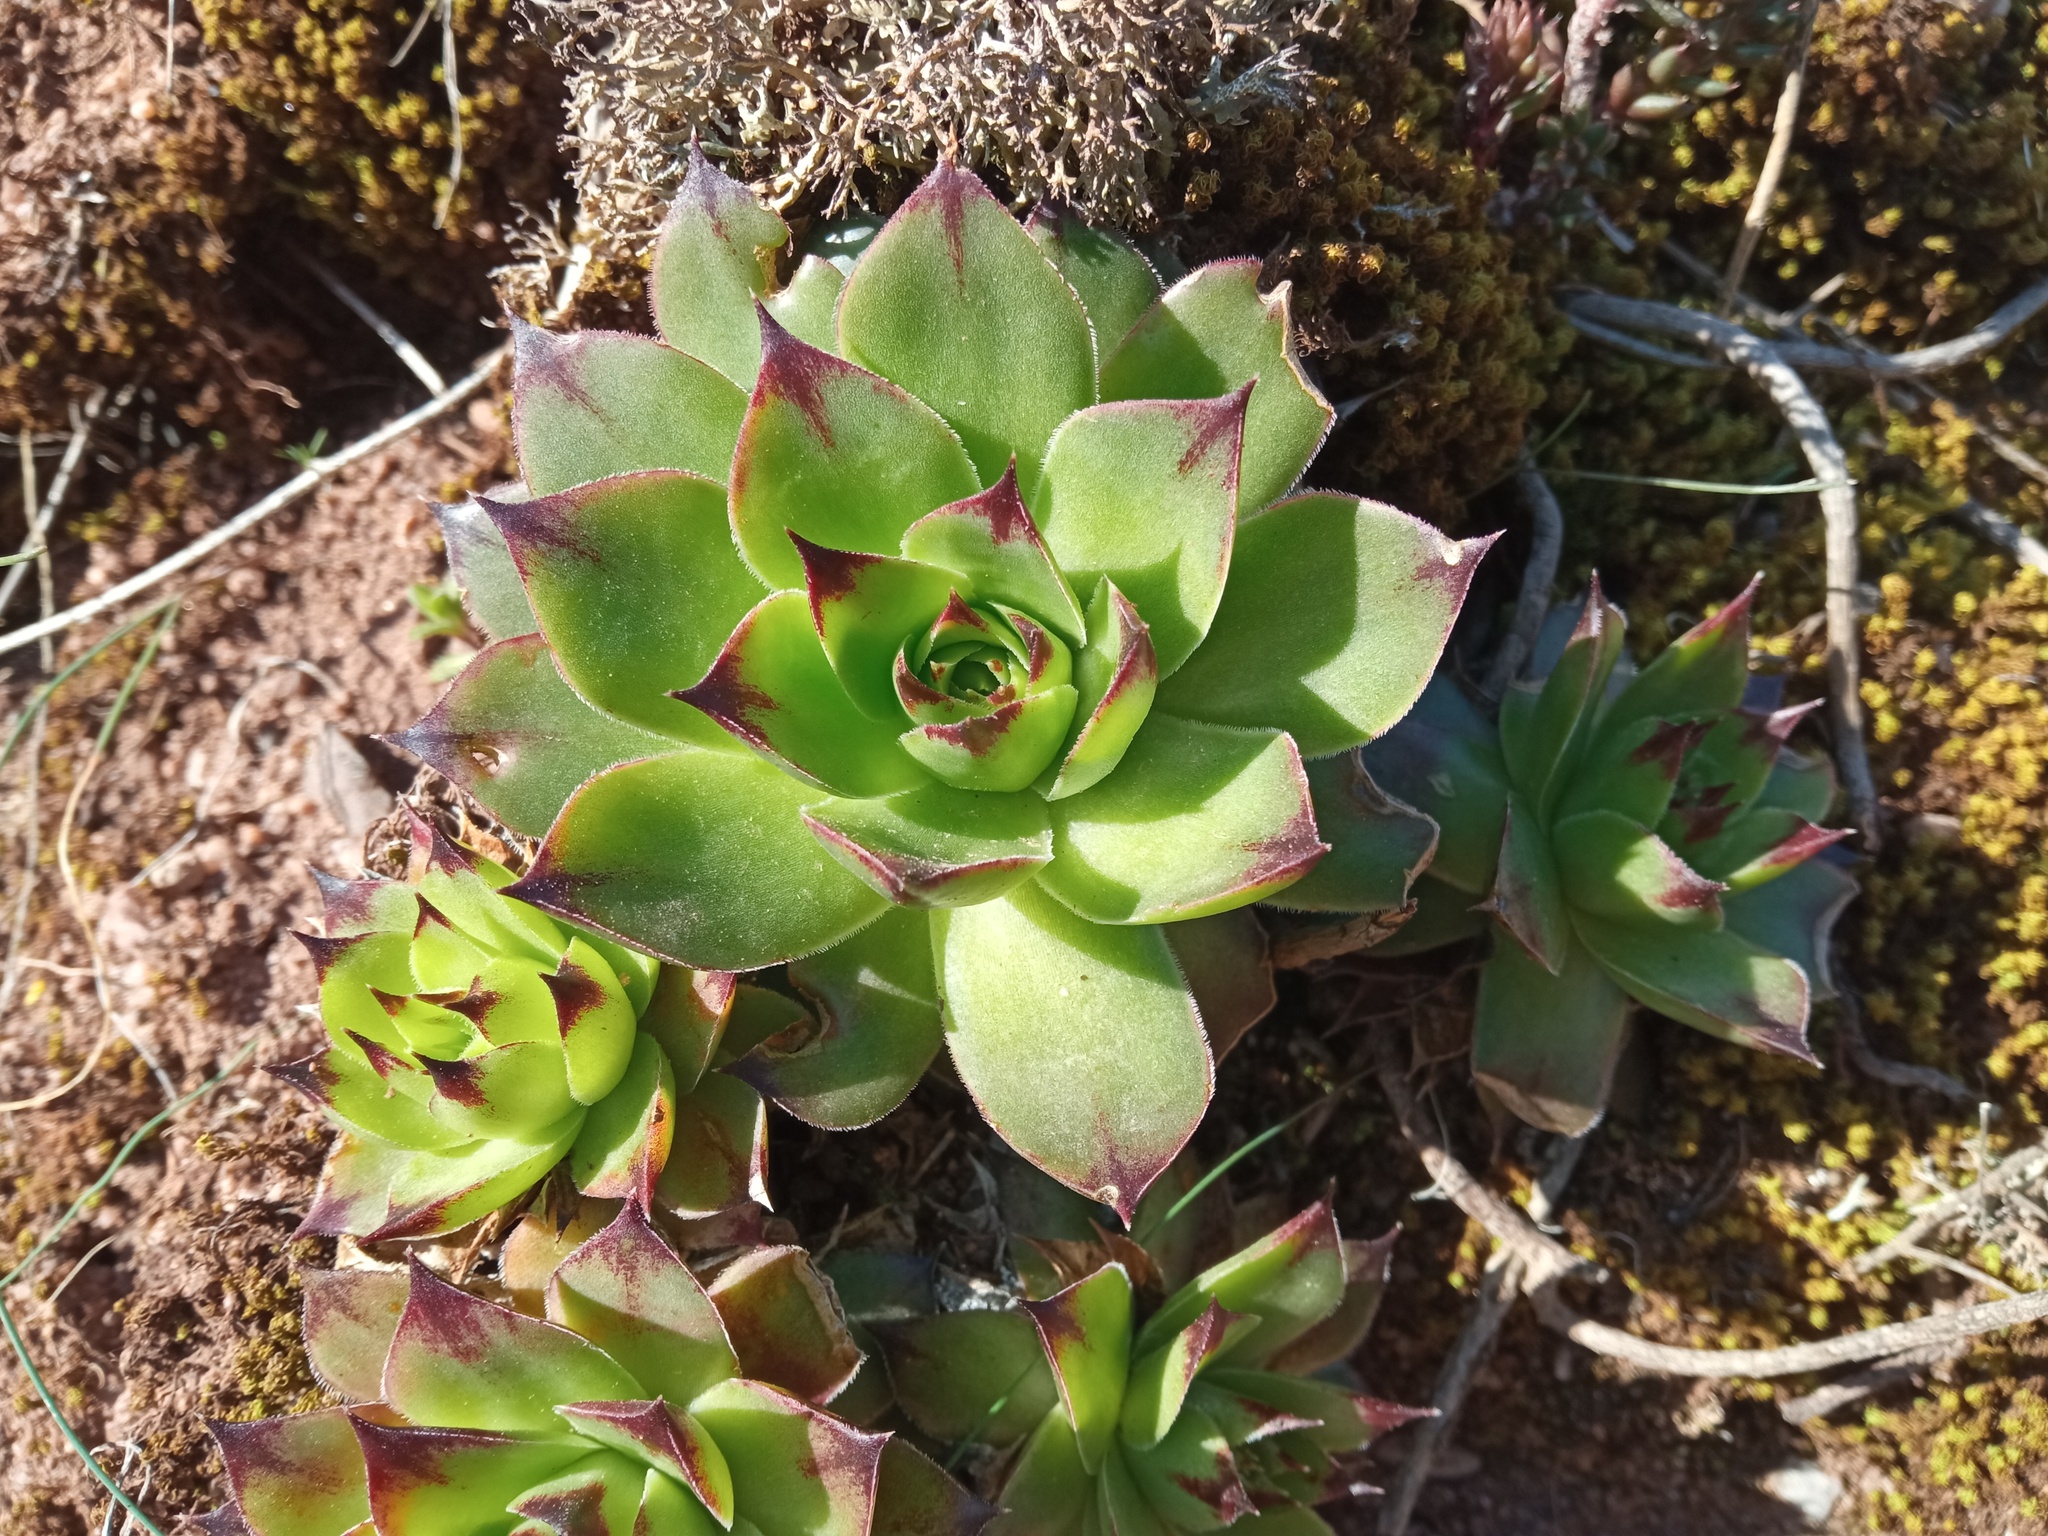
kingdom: Plantae
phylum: Tracheophyta
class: Magnoliopsida
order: Saxifragales
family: Crassulaceae
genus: Sempervivum
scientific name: Sempervivum tectorum
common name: House-leek
